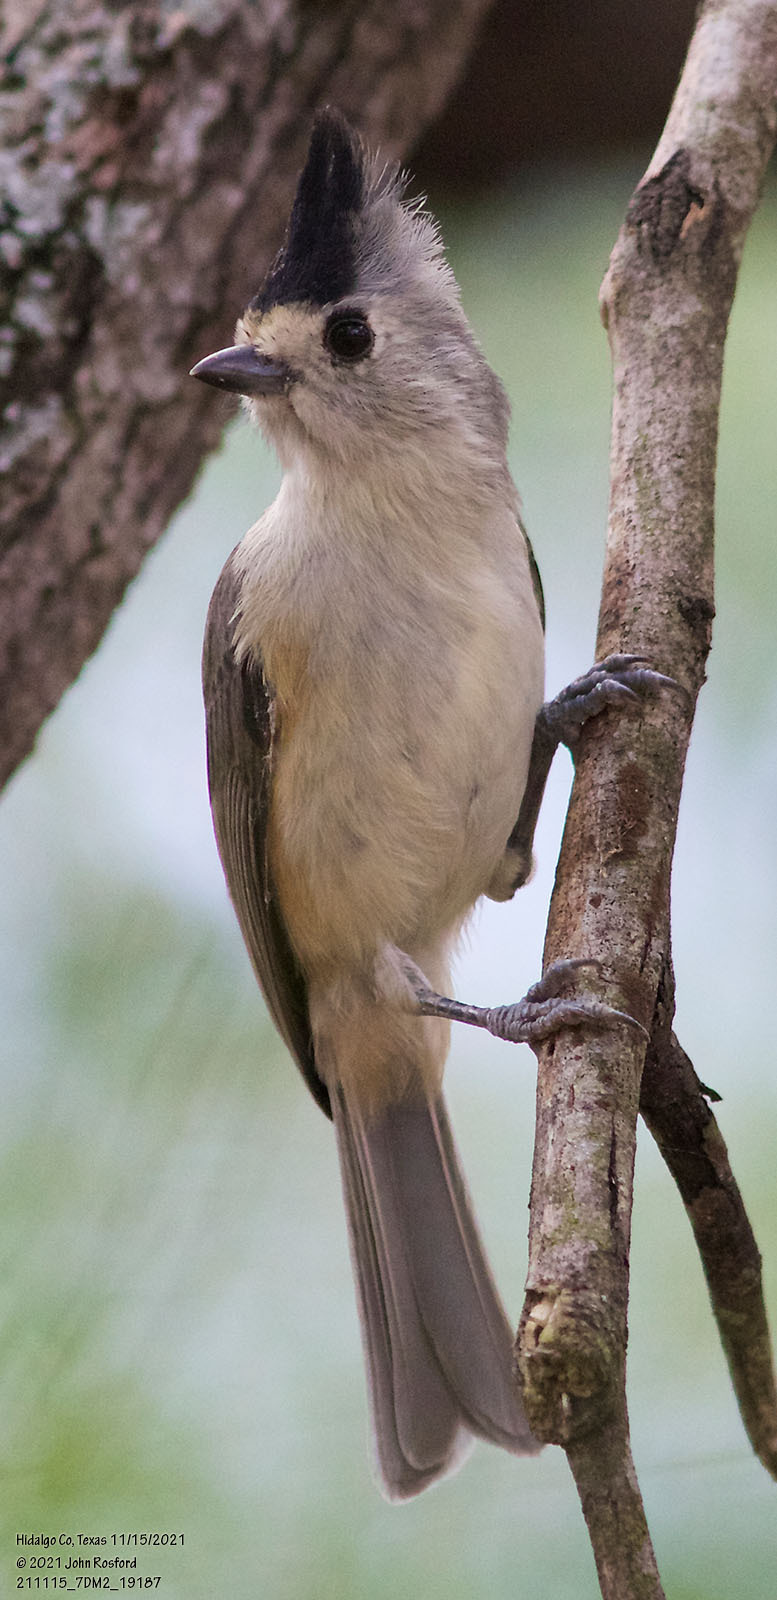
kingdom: Animalia
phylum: Chordata
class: Aves
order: Passeriformes
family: Paridae
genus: Baeolophus
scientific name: Baeolophus atricristatus
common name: Black-crested titmouse
